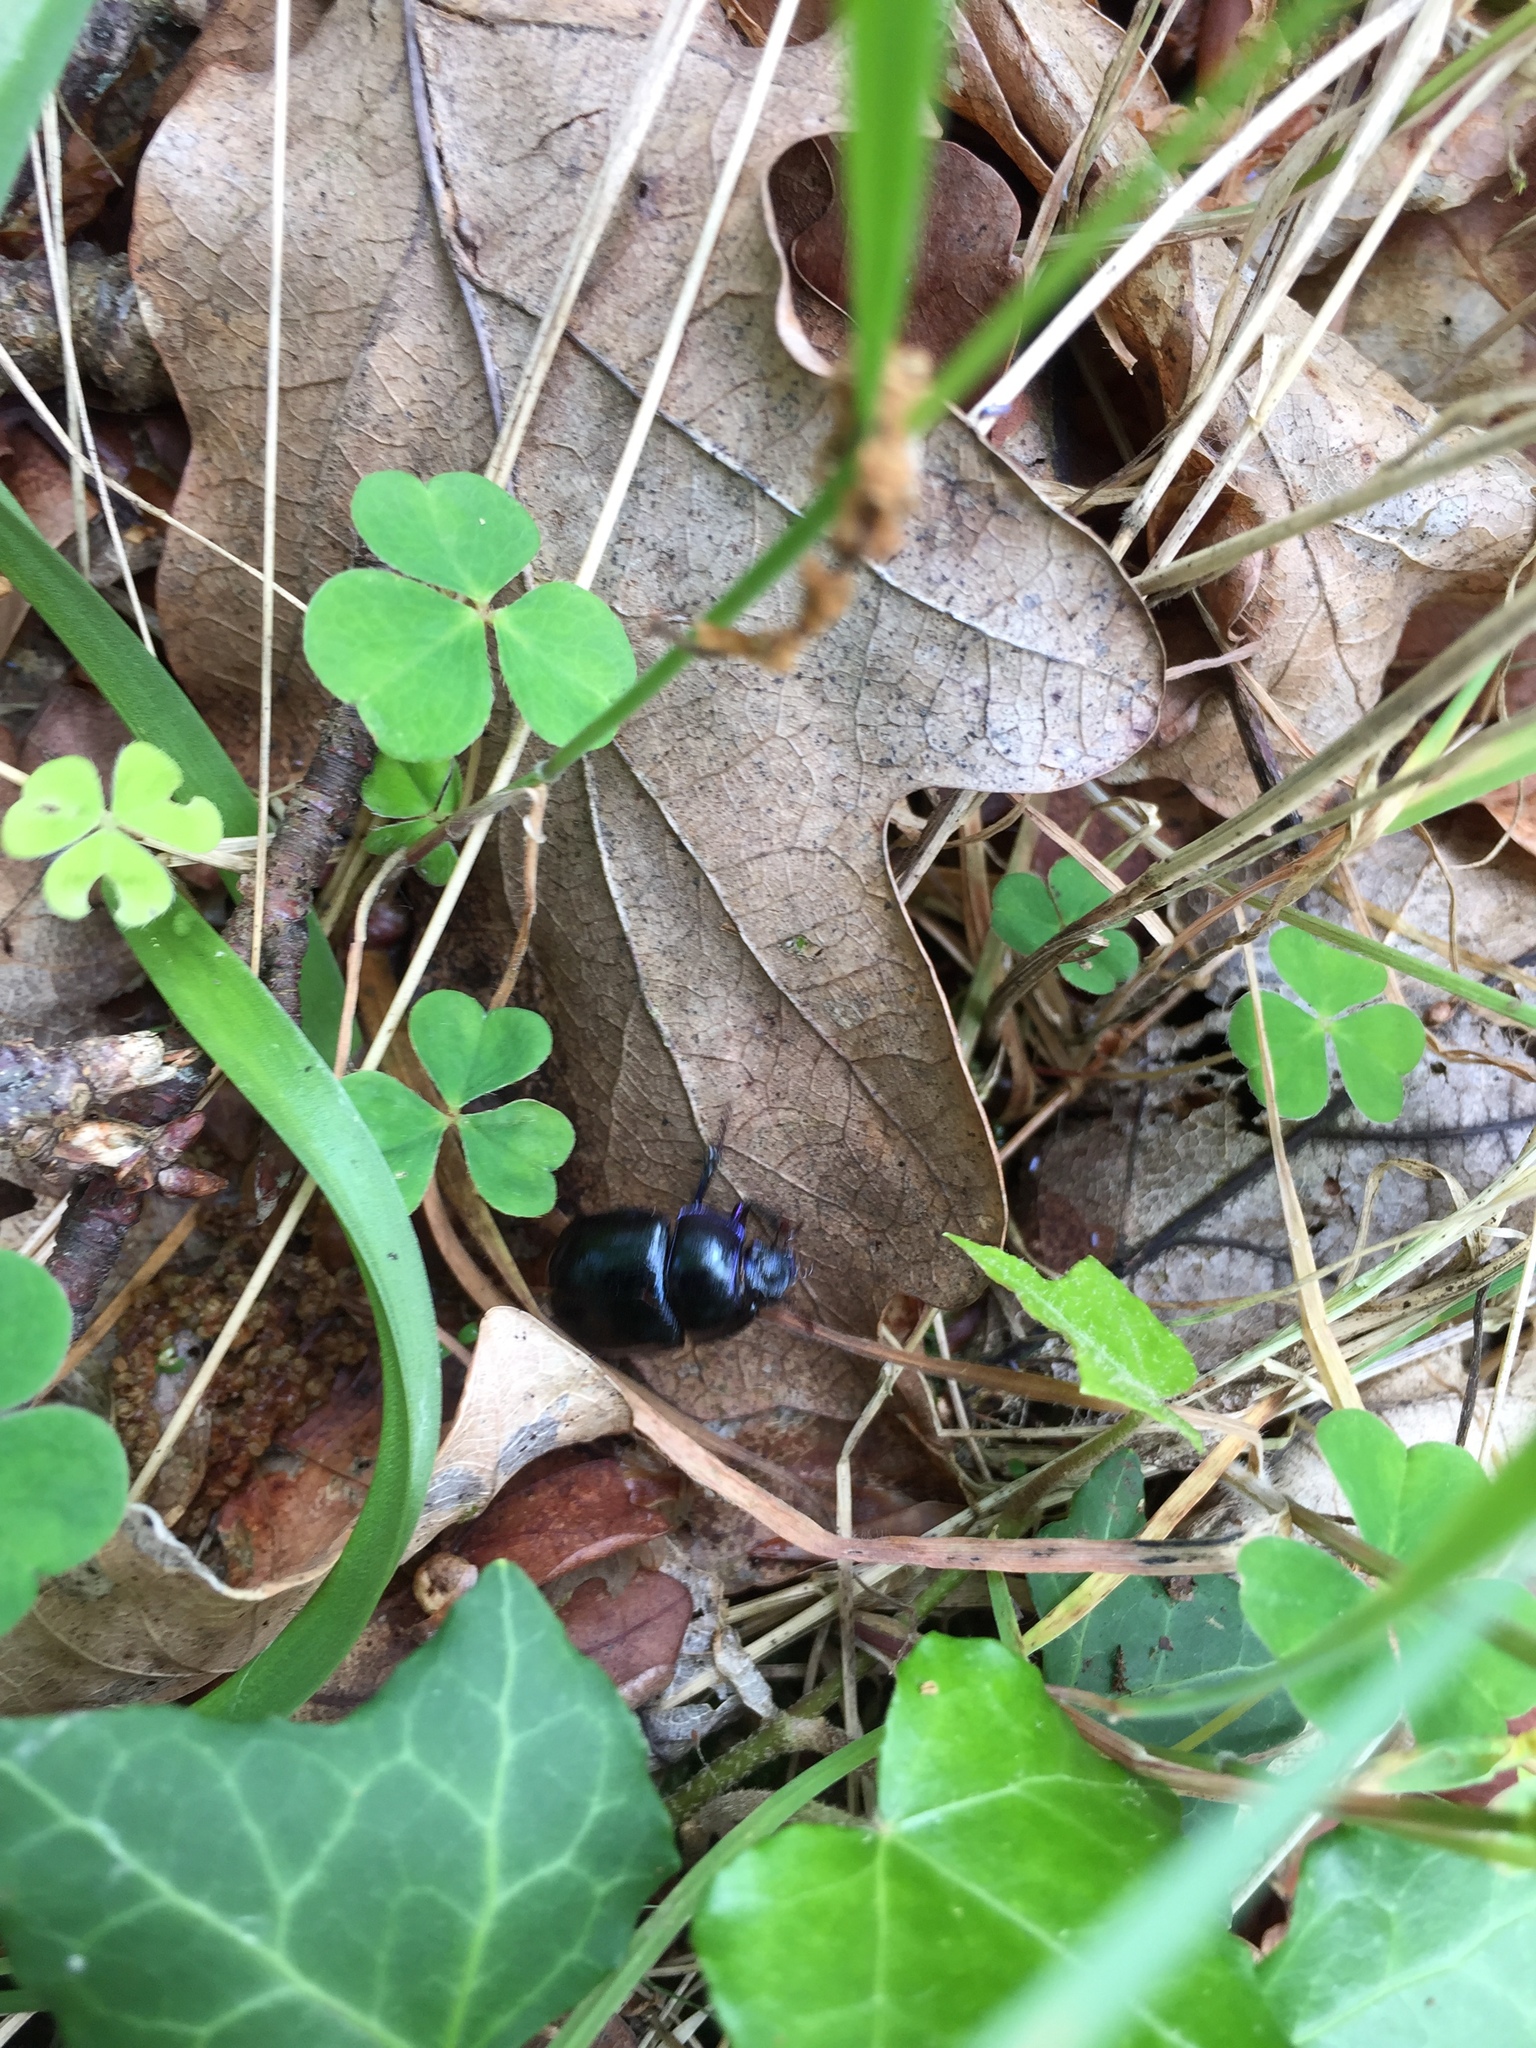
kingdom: Animalia
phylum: Arthropoda
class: Insecta
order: Coleoptera
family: Geotrupidae
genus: Anoplotrupes
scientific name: Anoplotrupes stercorosus
